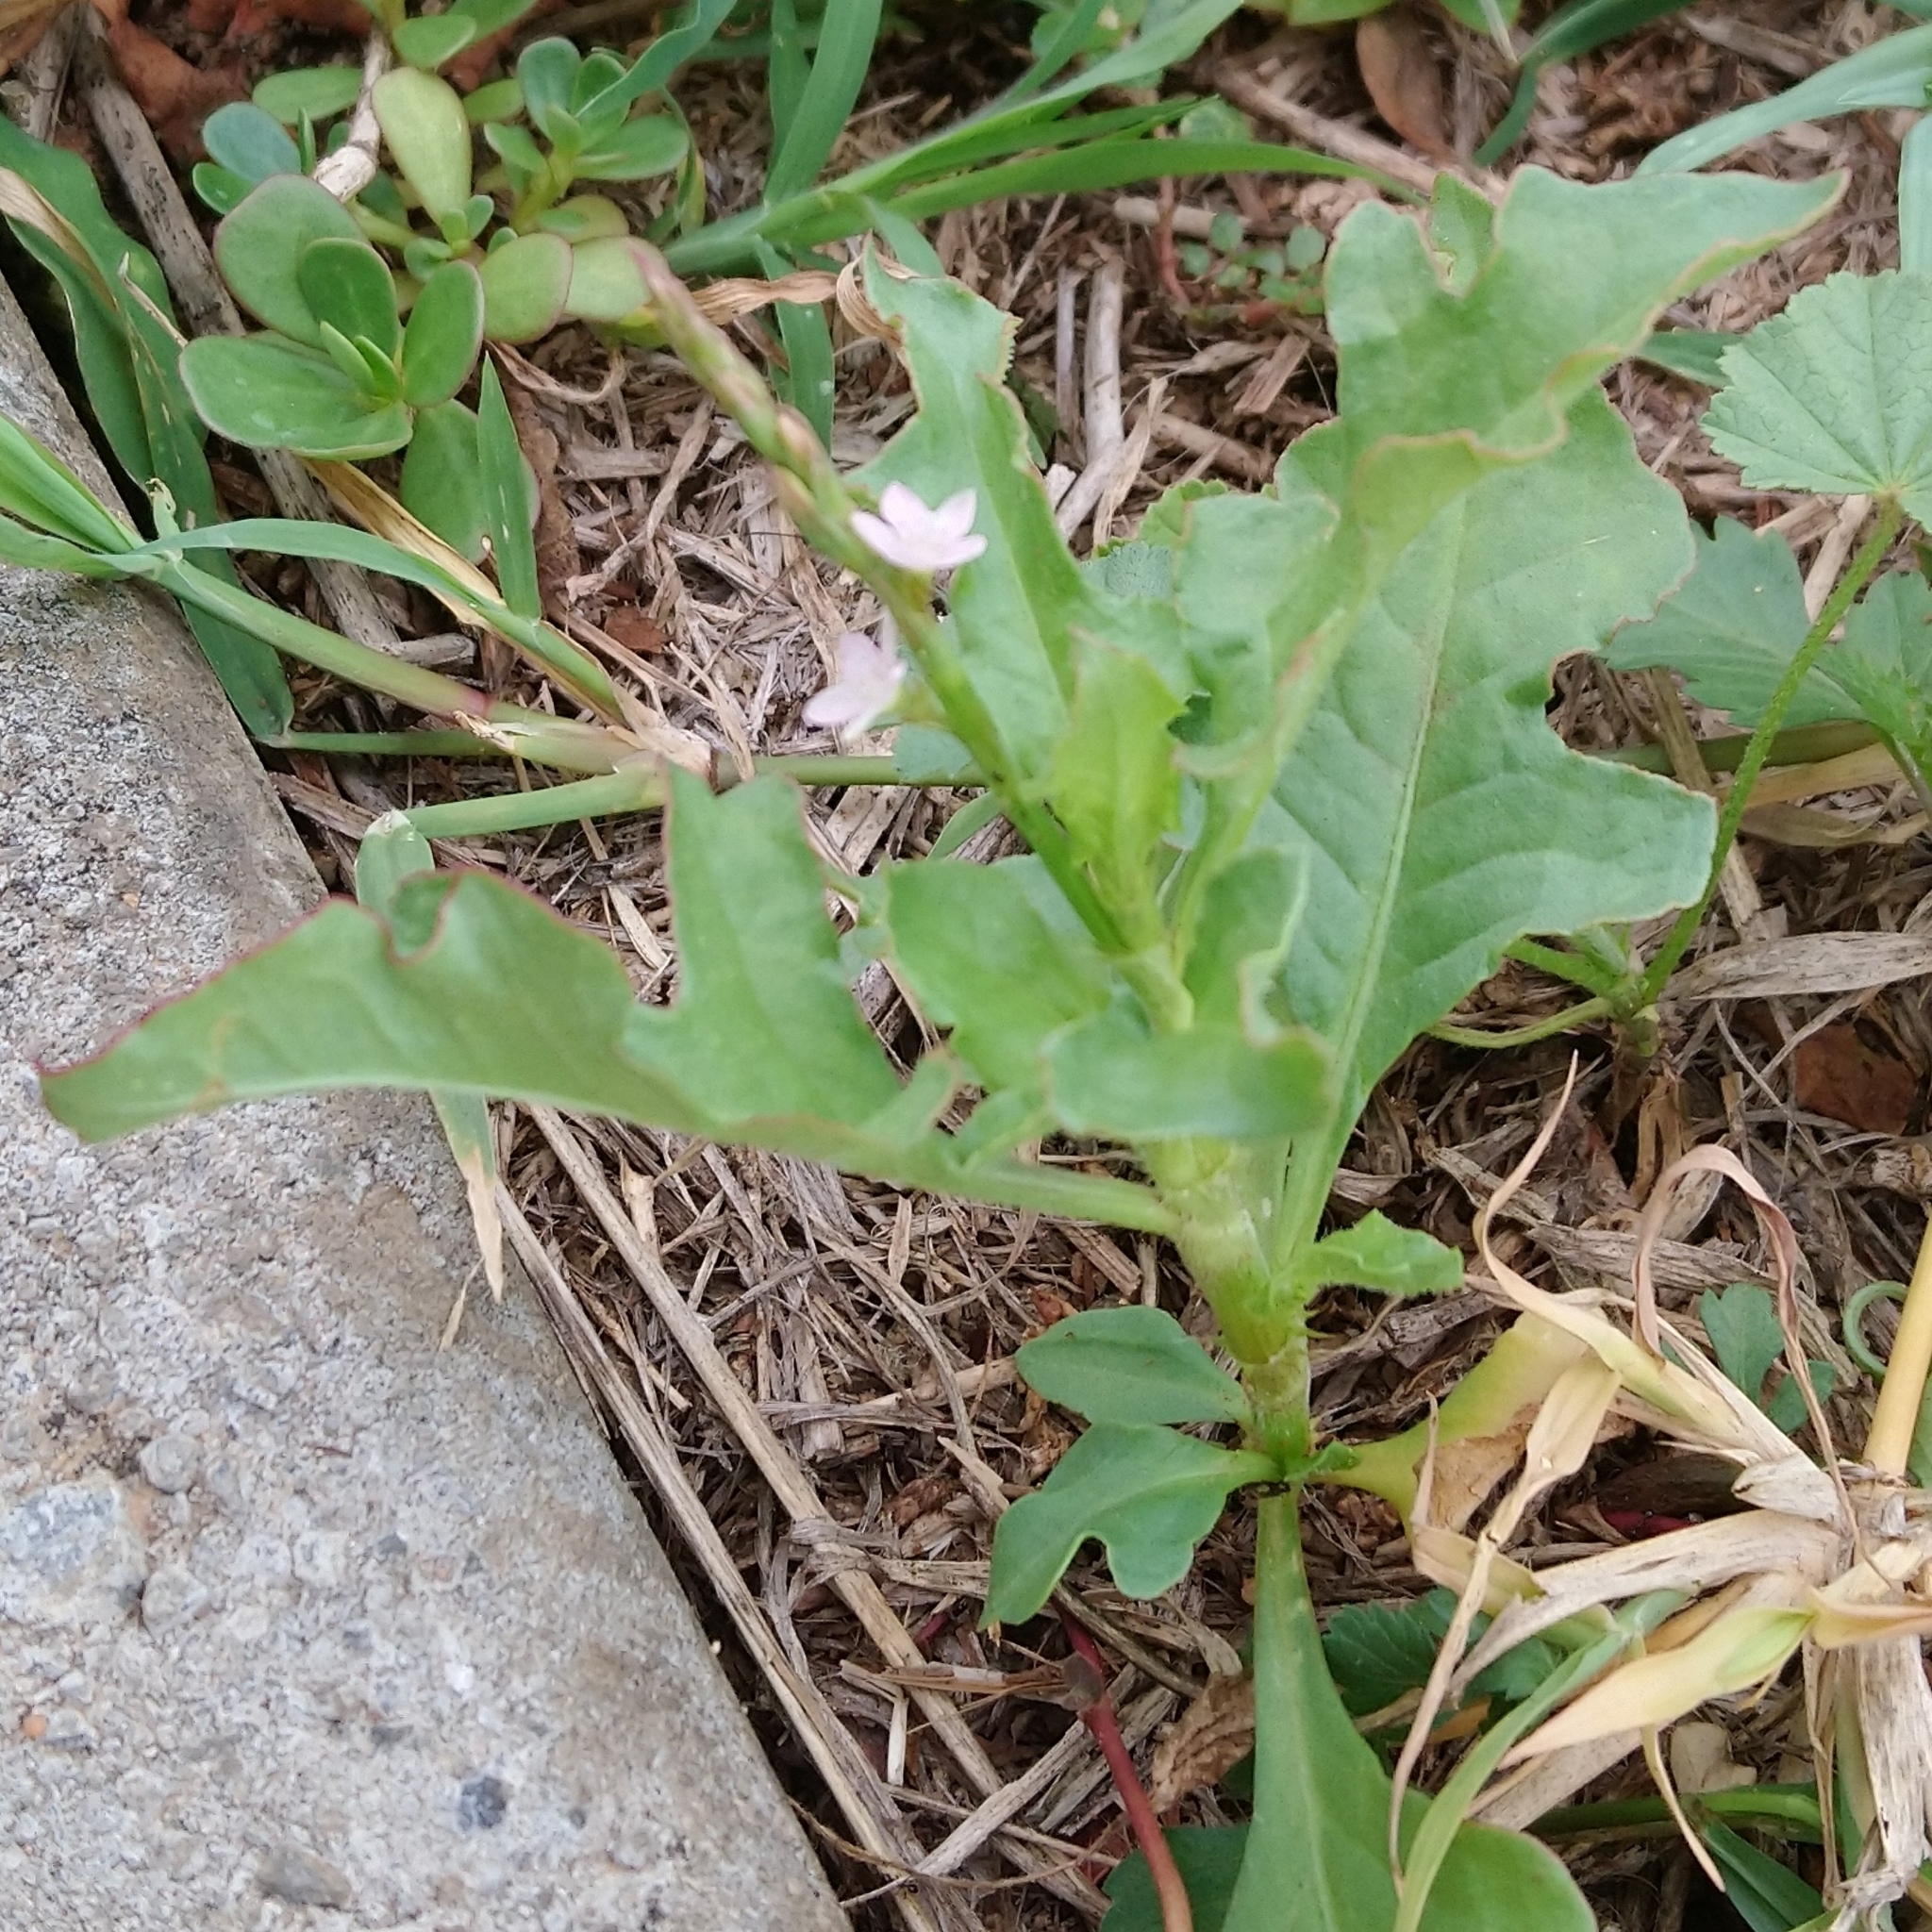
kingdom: Plantae
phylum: Tracheophyta
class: Magnoliopsida
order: Caryophyllales
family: Polygonaceae
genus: Oxygonum
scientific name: Oxygonum sinuatum
